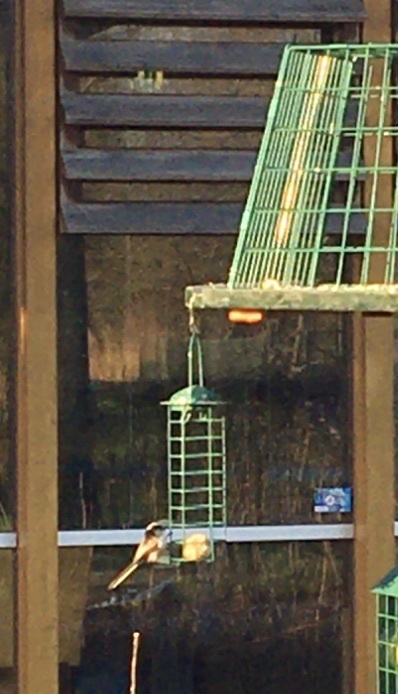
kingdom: Animalia
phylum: Chordata
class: Aves
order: Passeriformes
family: Aegithalidae
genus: Aegithalos
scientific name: Aegithalos caudatus
